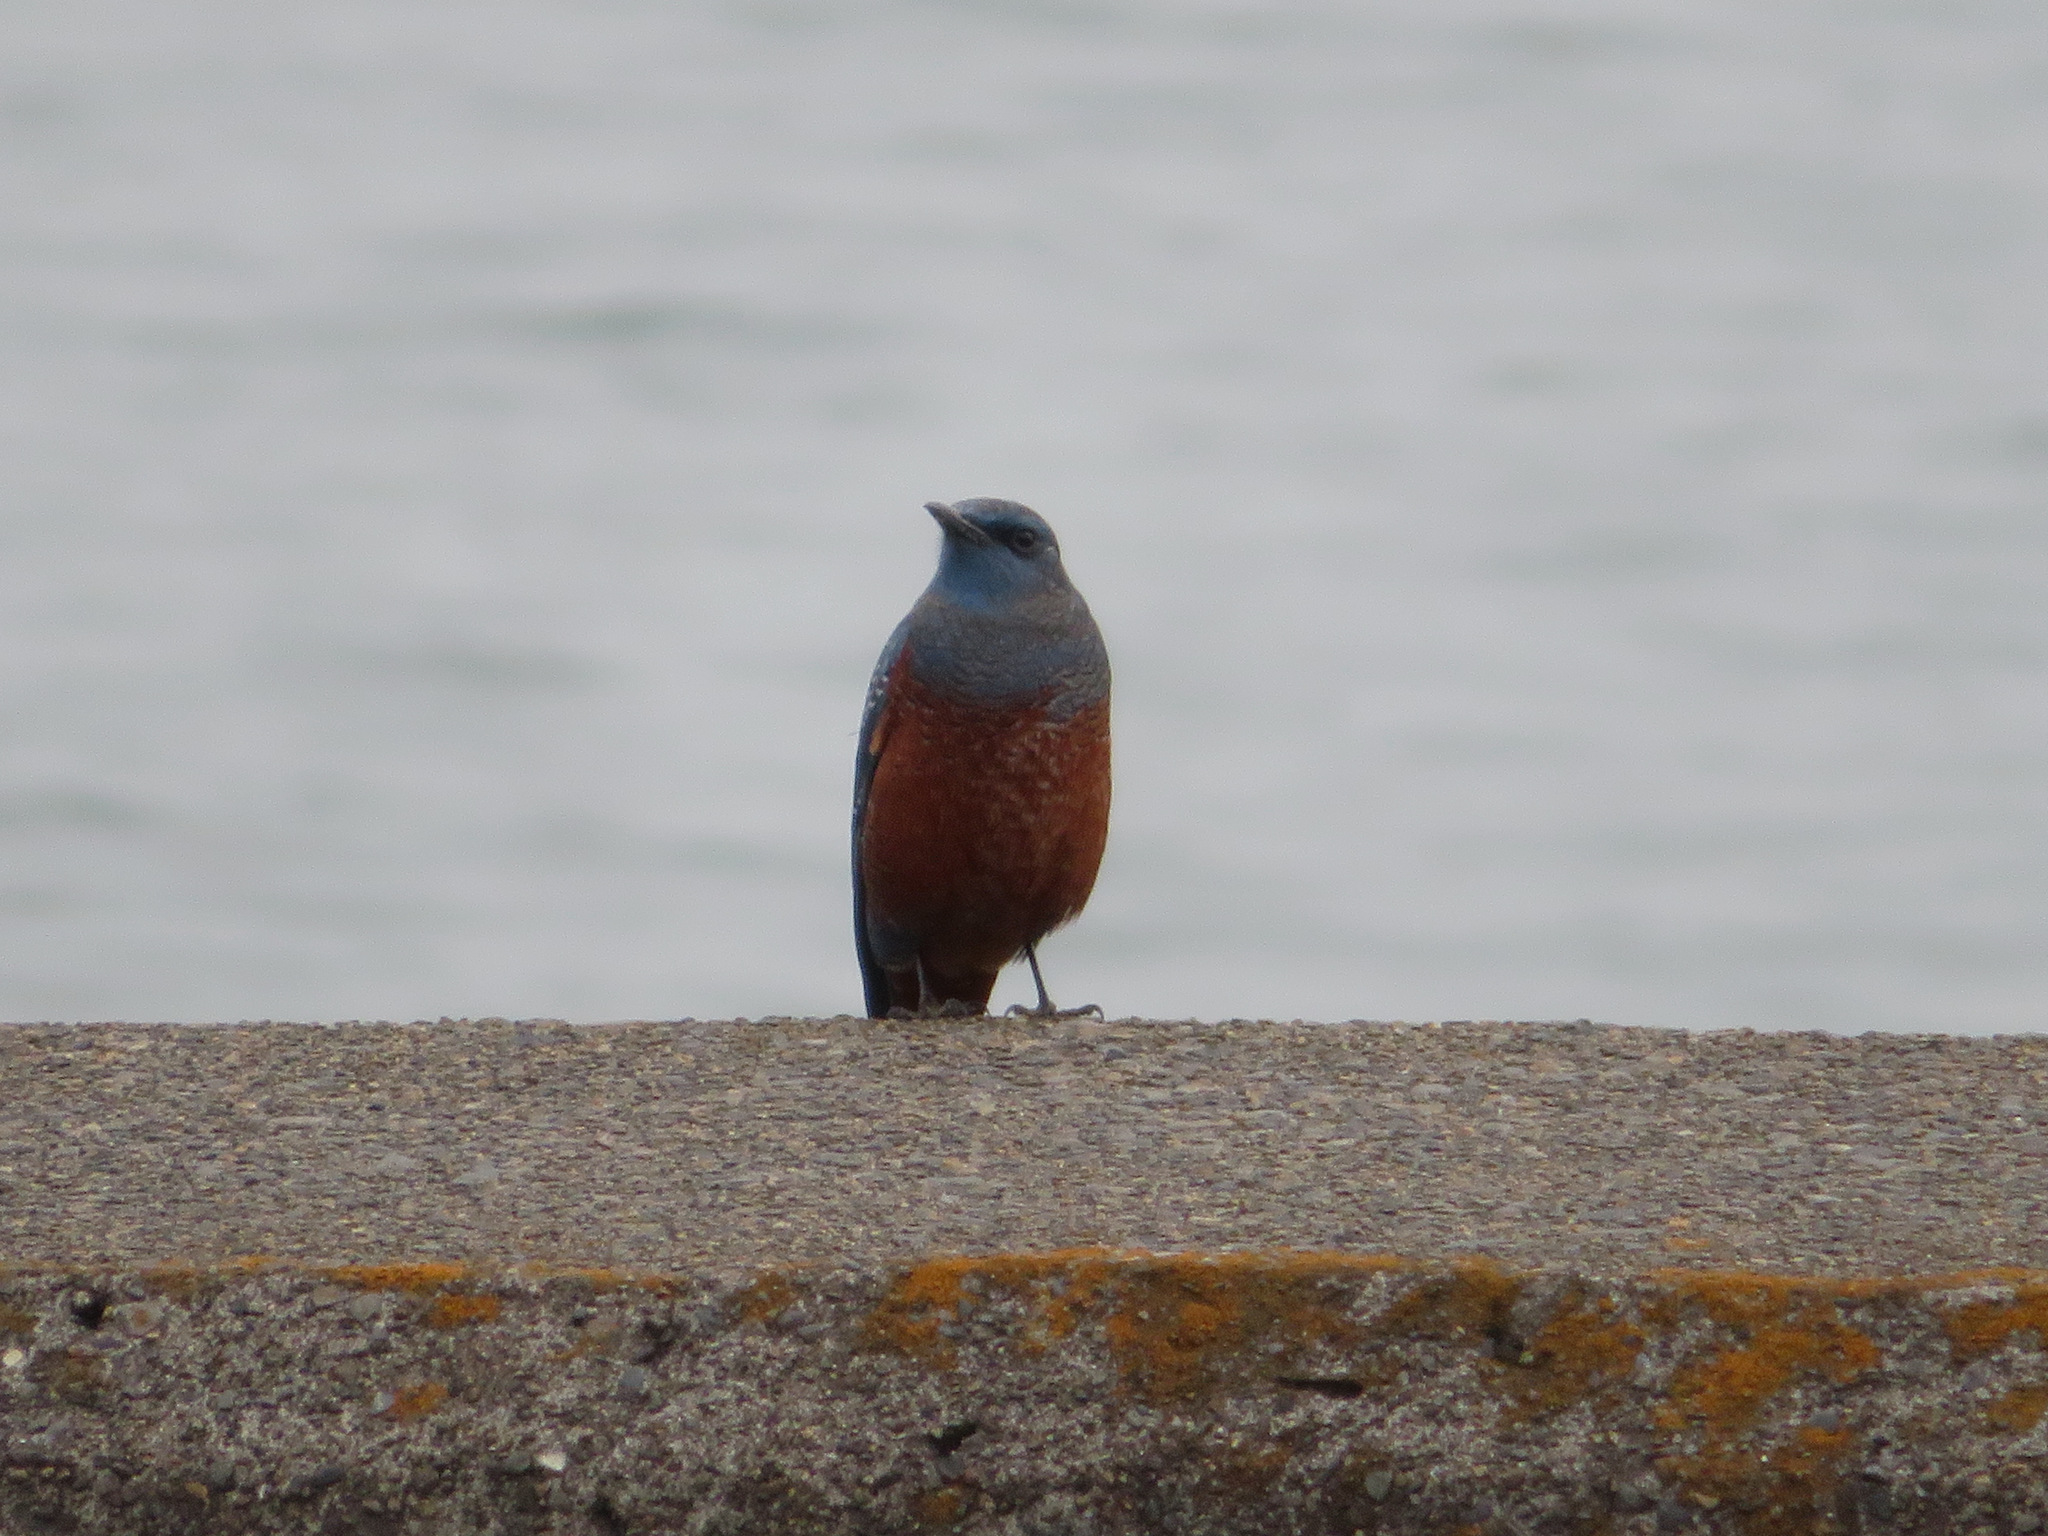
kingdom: Animalia
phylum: Chordata
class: Aves
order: Passeriformes
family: Muscicapidae
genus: Monticola
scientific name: Monticola solitarius
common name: Blue rock thrush
